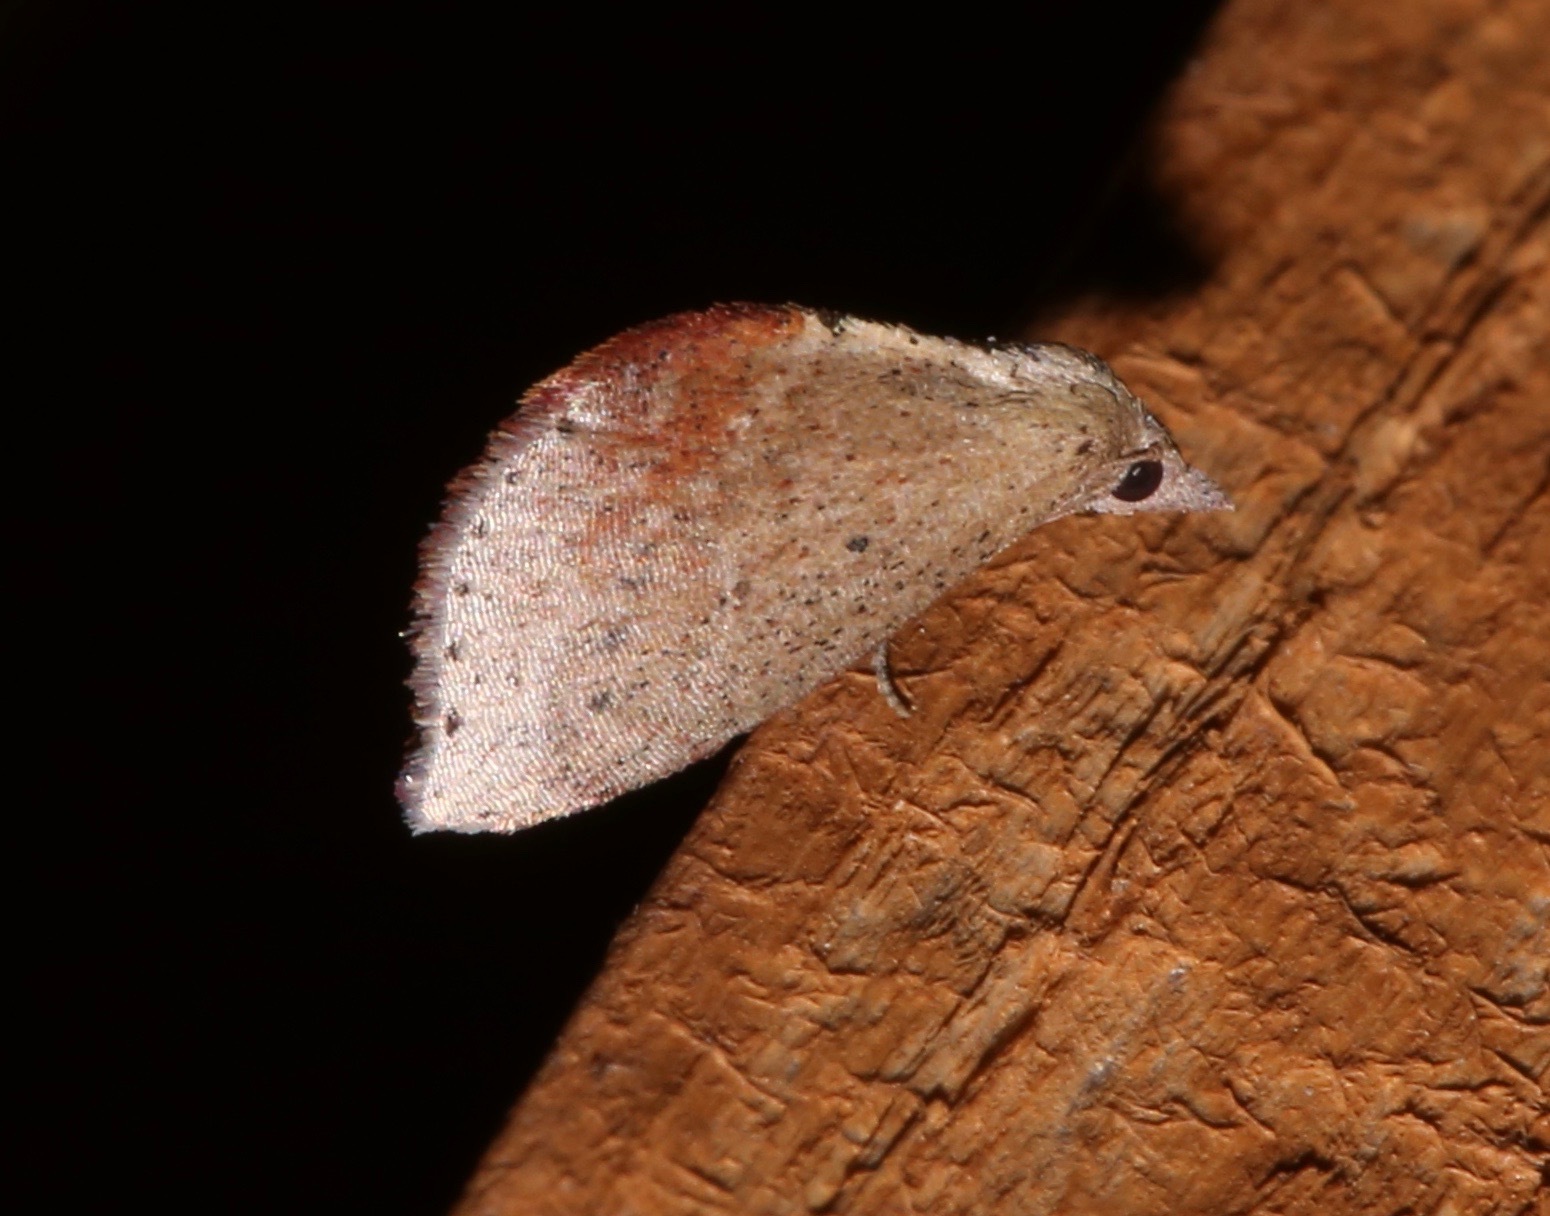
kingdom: Animalia
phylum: Arthropoda
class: Insecta
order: Lepidoptera
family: Noctuidae
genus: Proroblemma
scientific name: Proroblemma testa
